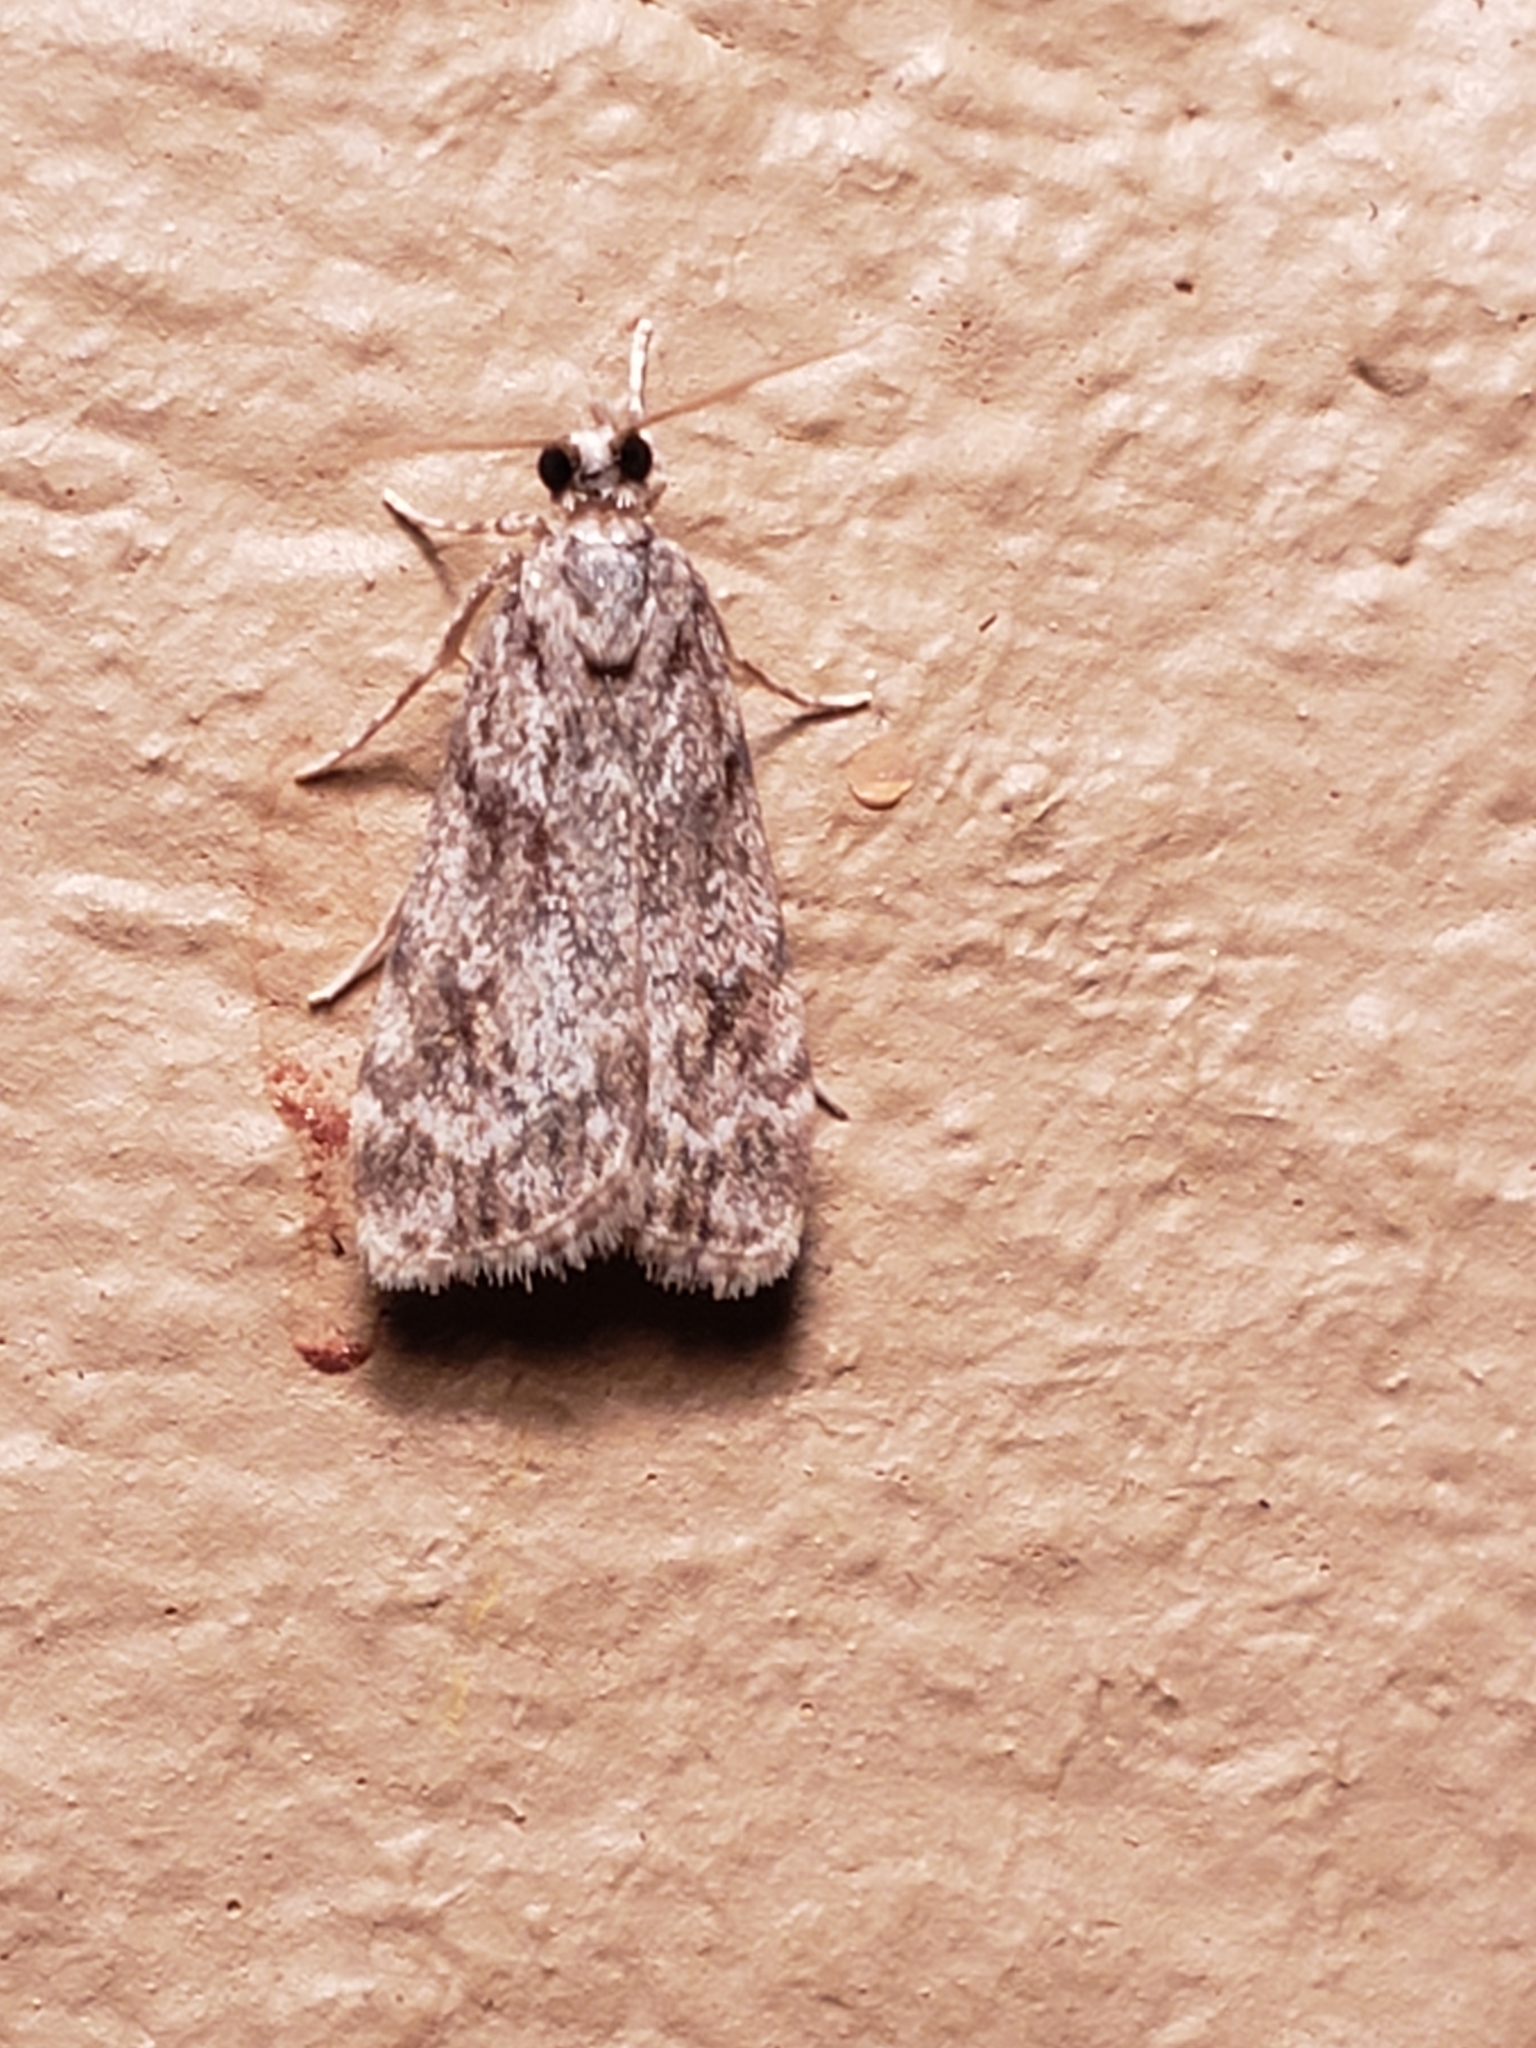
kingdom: Animalia
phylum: Arthropoda
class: Insecta
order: Lepidoptera
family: Crambidae
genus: Scoparia
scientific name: Scoparia biplagialis
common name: Double-striped scoparia moth
